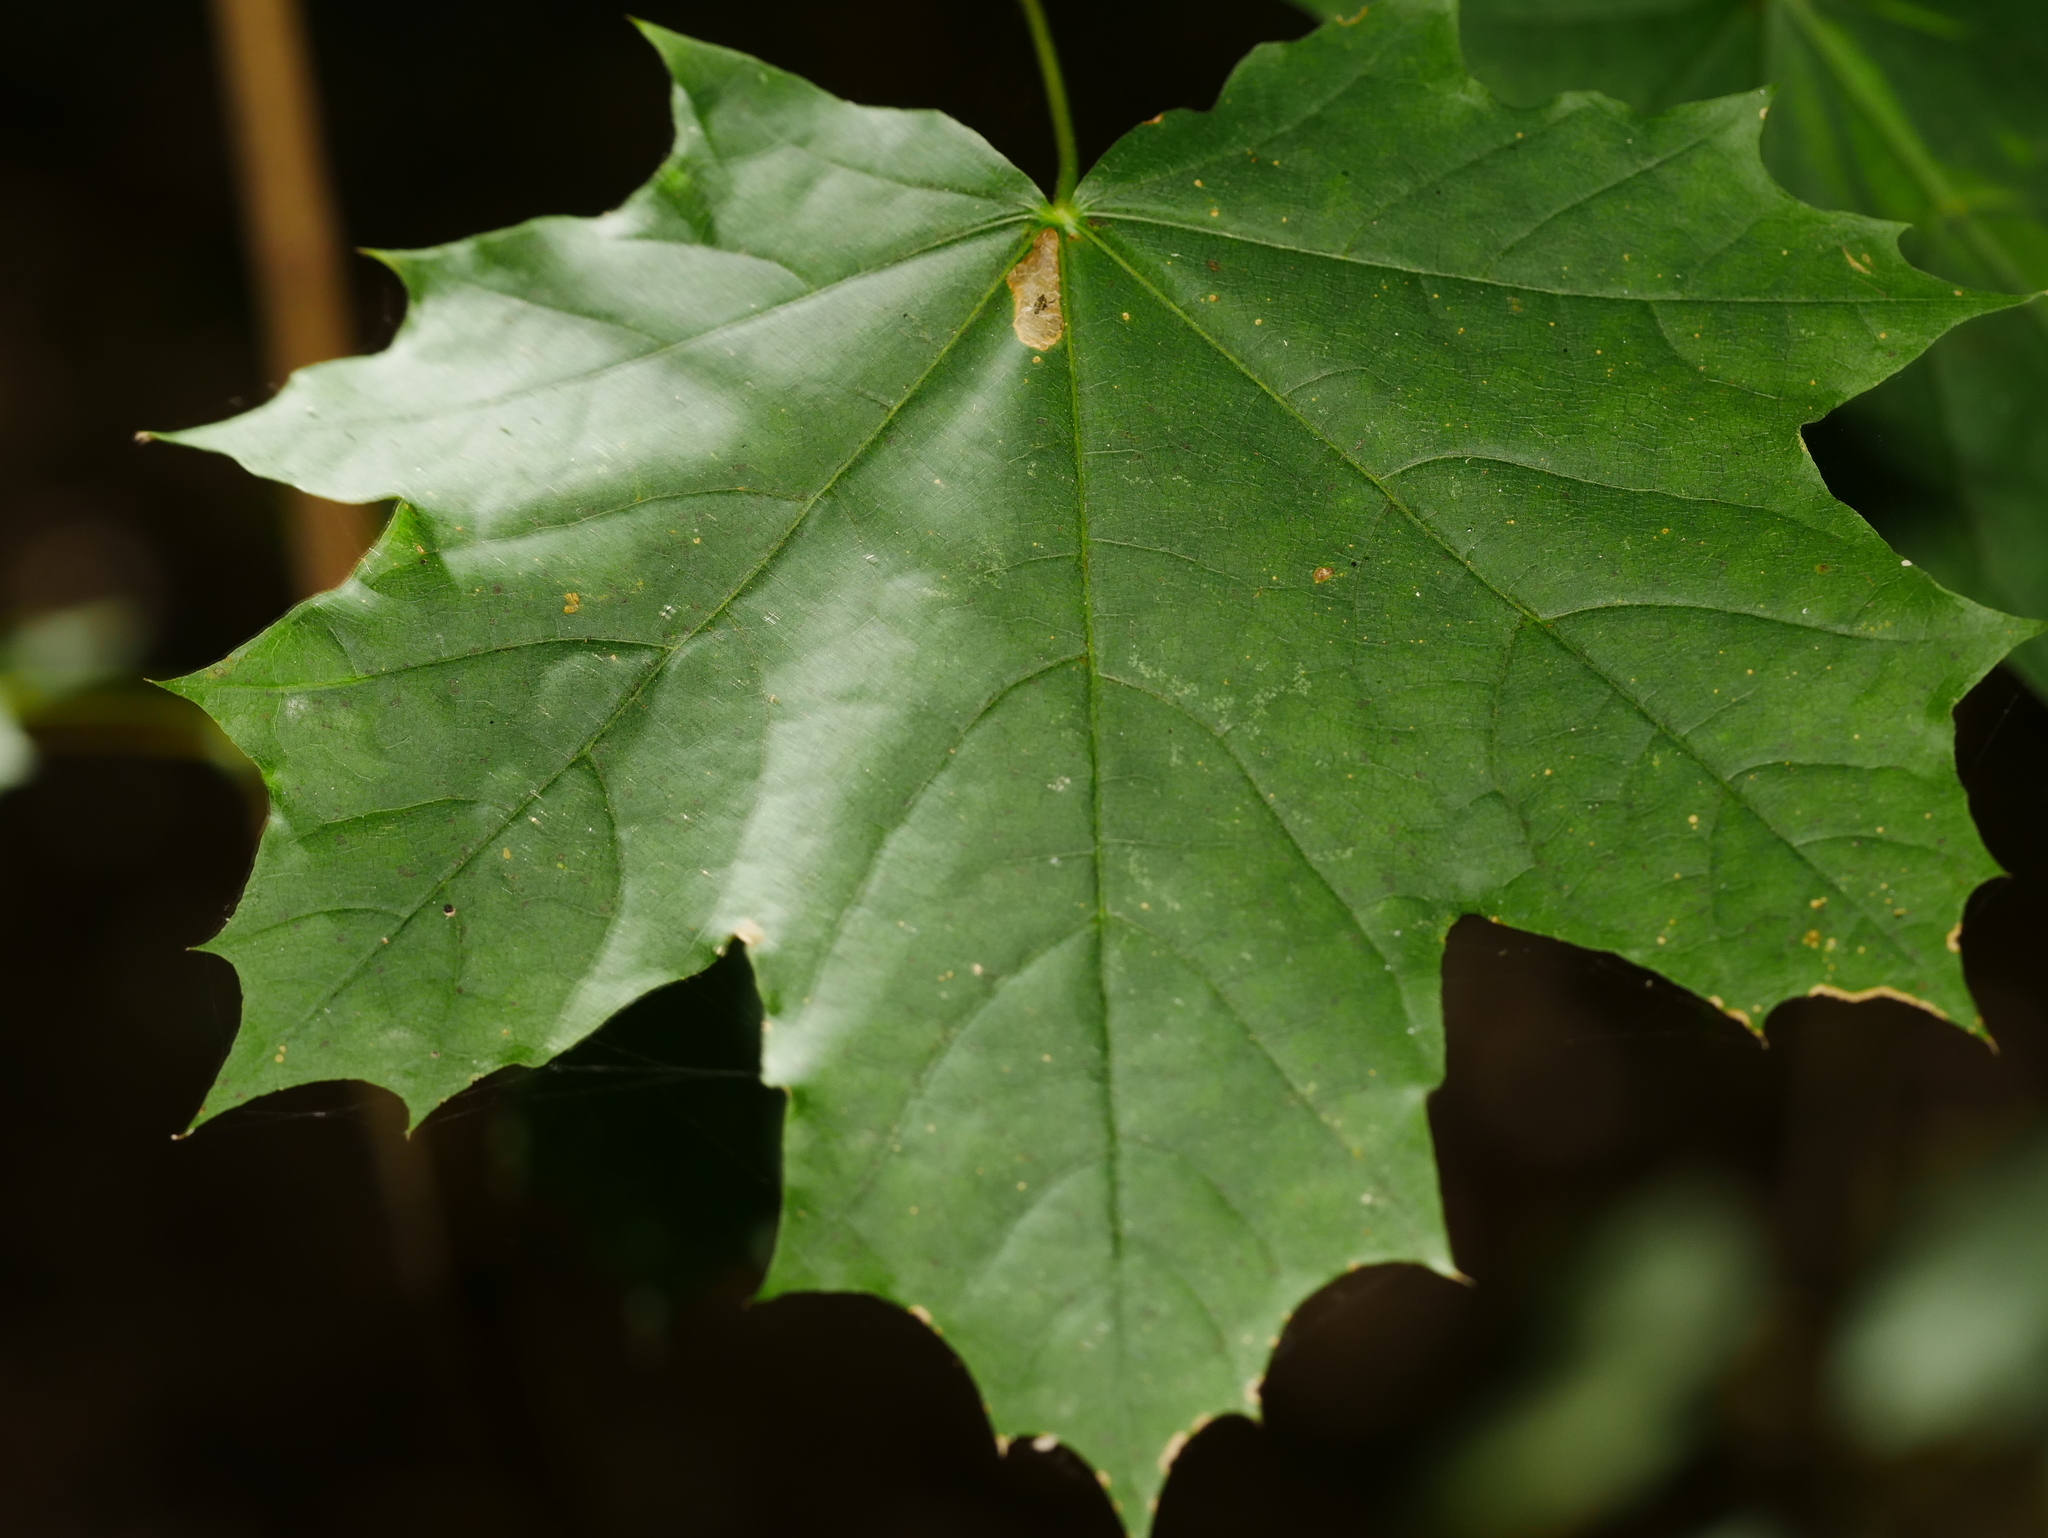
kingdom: Plantae
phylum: Tracheophyta
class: Magnoliopsida
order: Sapindales
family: Sapindaceae
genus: Acer
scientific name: Acer platanoides
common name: Norway maple
